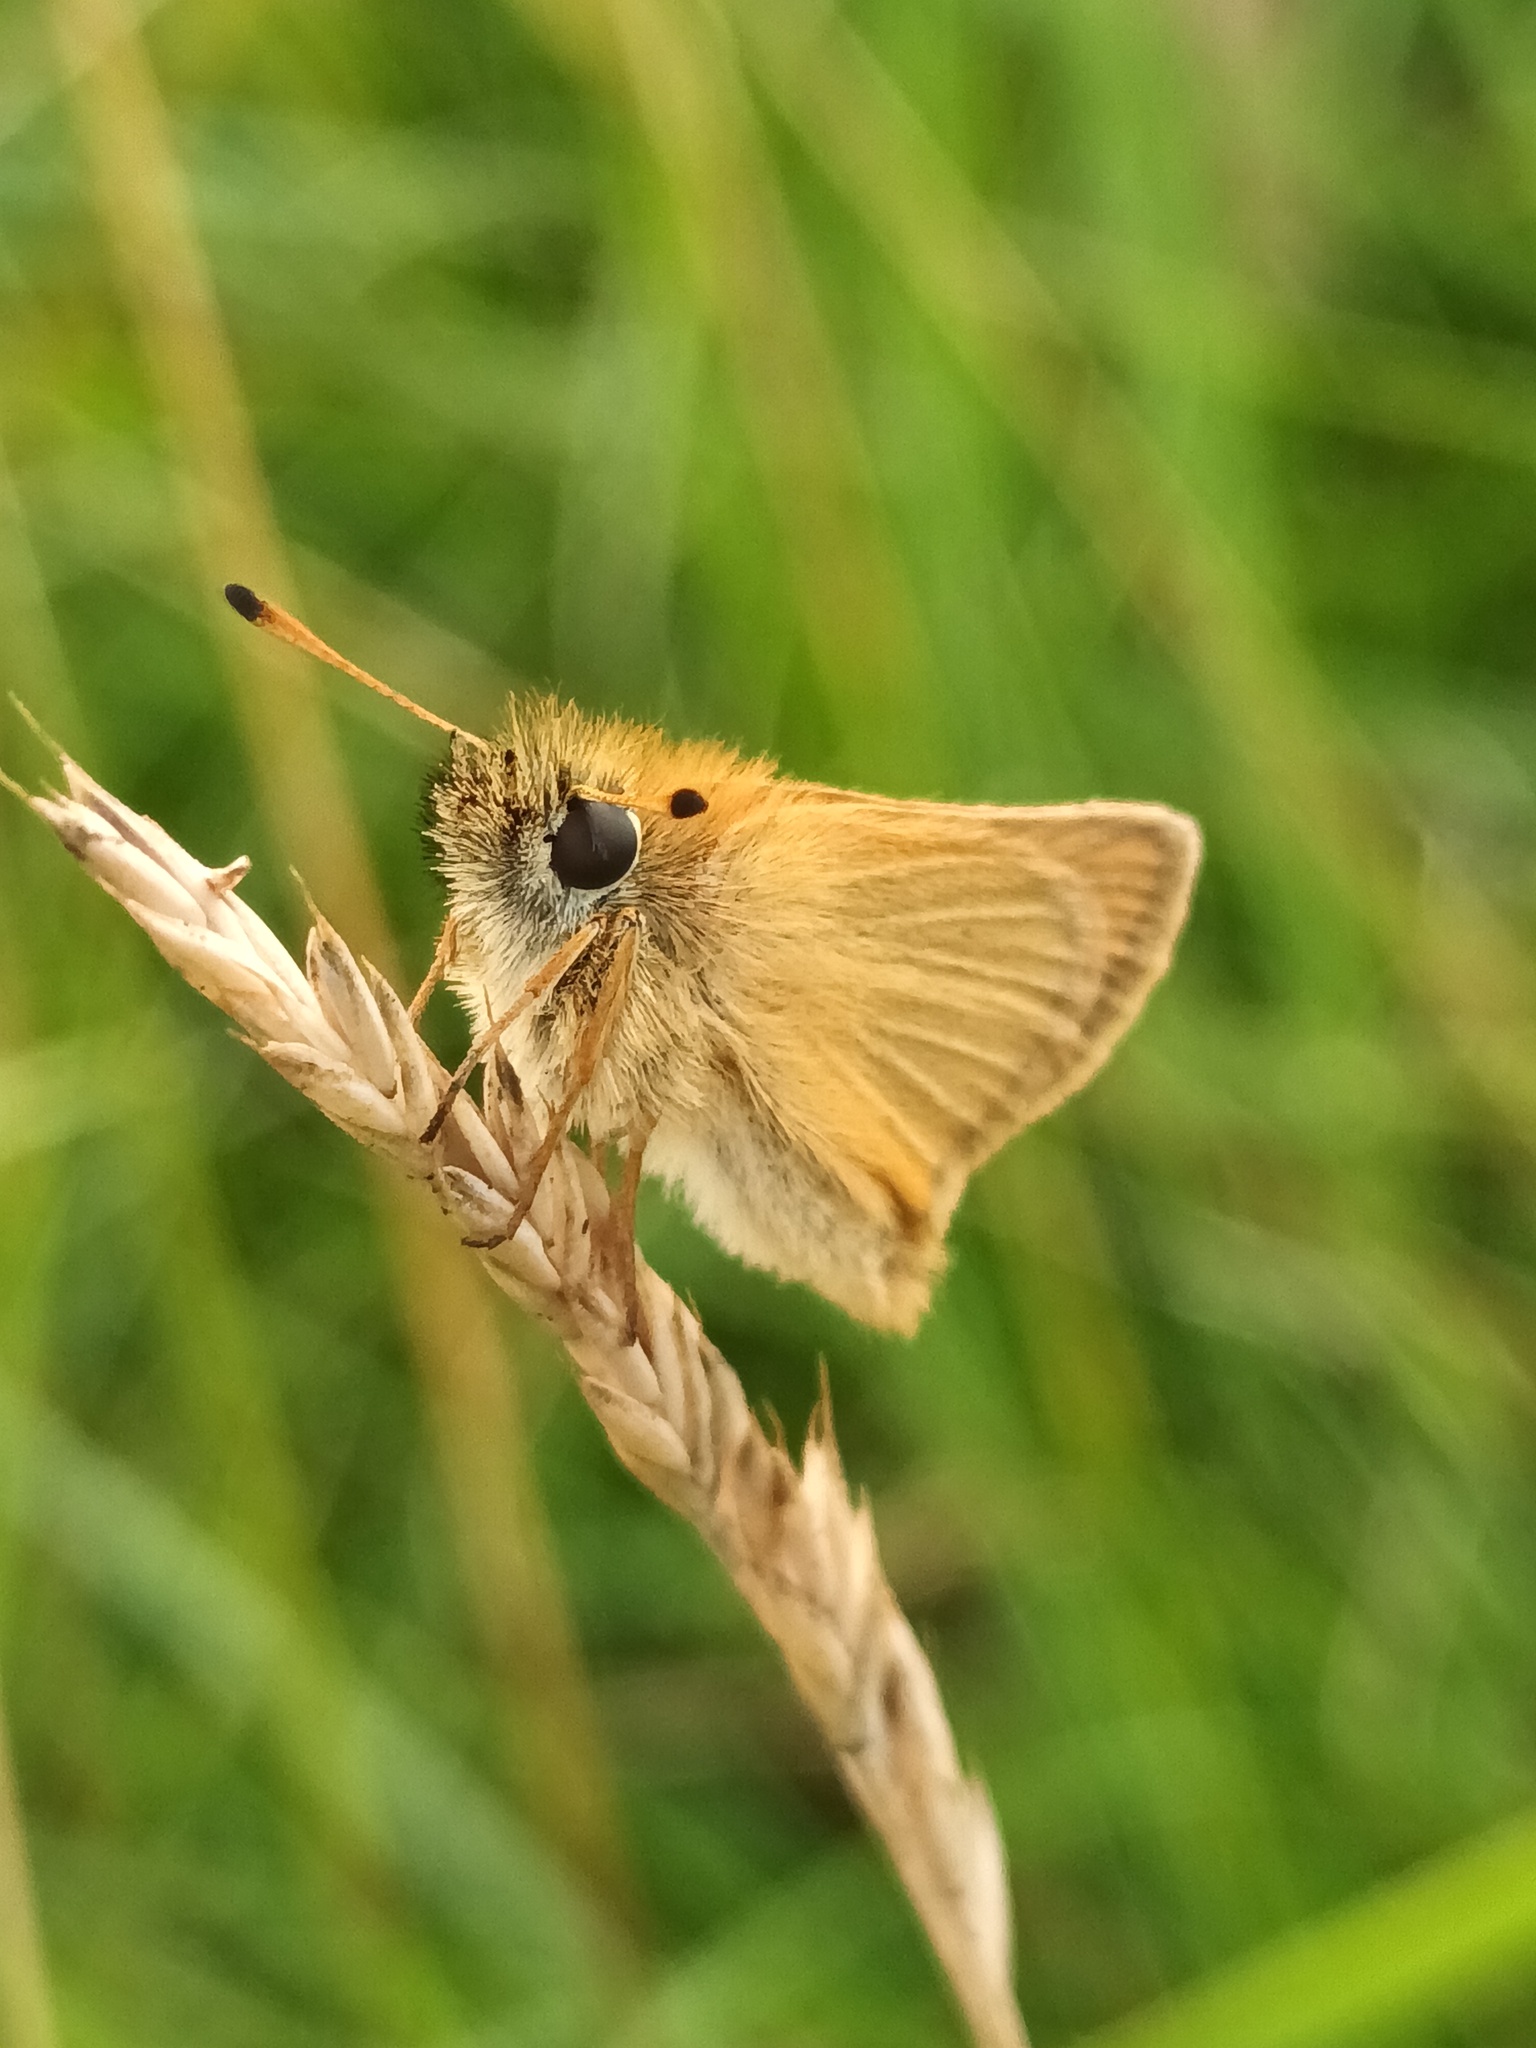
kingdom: Animalia
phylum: Arthropoda
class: Insecta
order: Lepidoptera
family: Hesperiidae
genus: Thymelicus
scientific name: Thymelicus lineola
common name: Essex skipper
